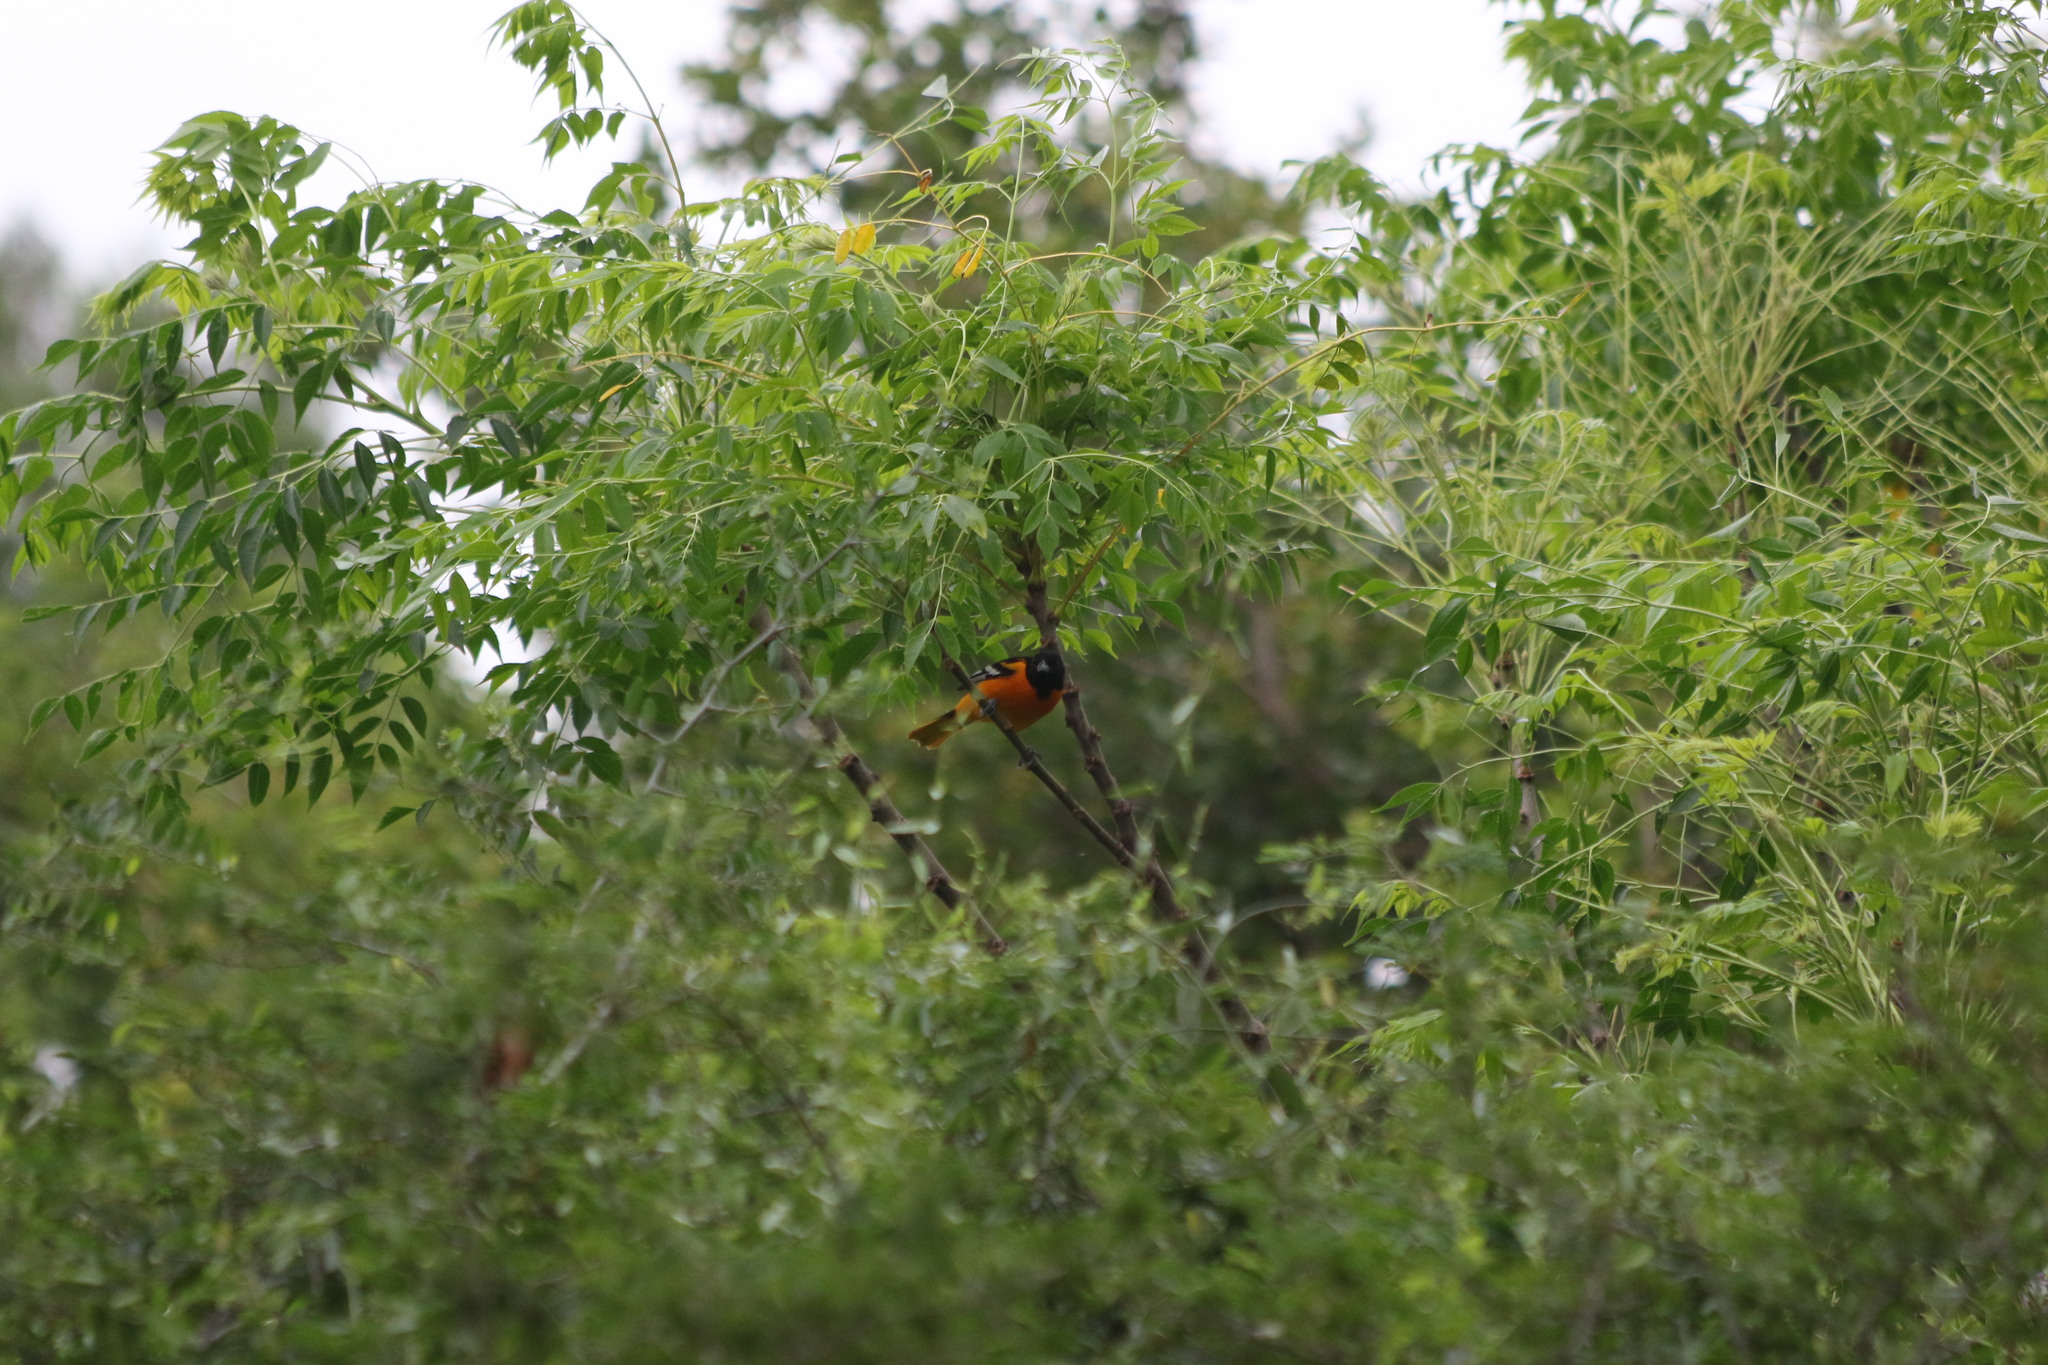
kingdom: Animalia
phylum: Chordata
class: Aves
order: Passeriformes
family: Icteridae
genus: Icterus
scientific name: Icterus galbula
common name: Baltimore oriole
